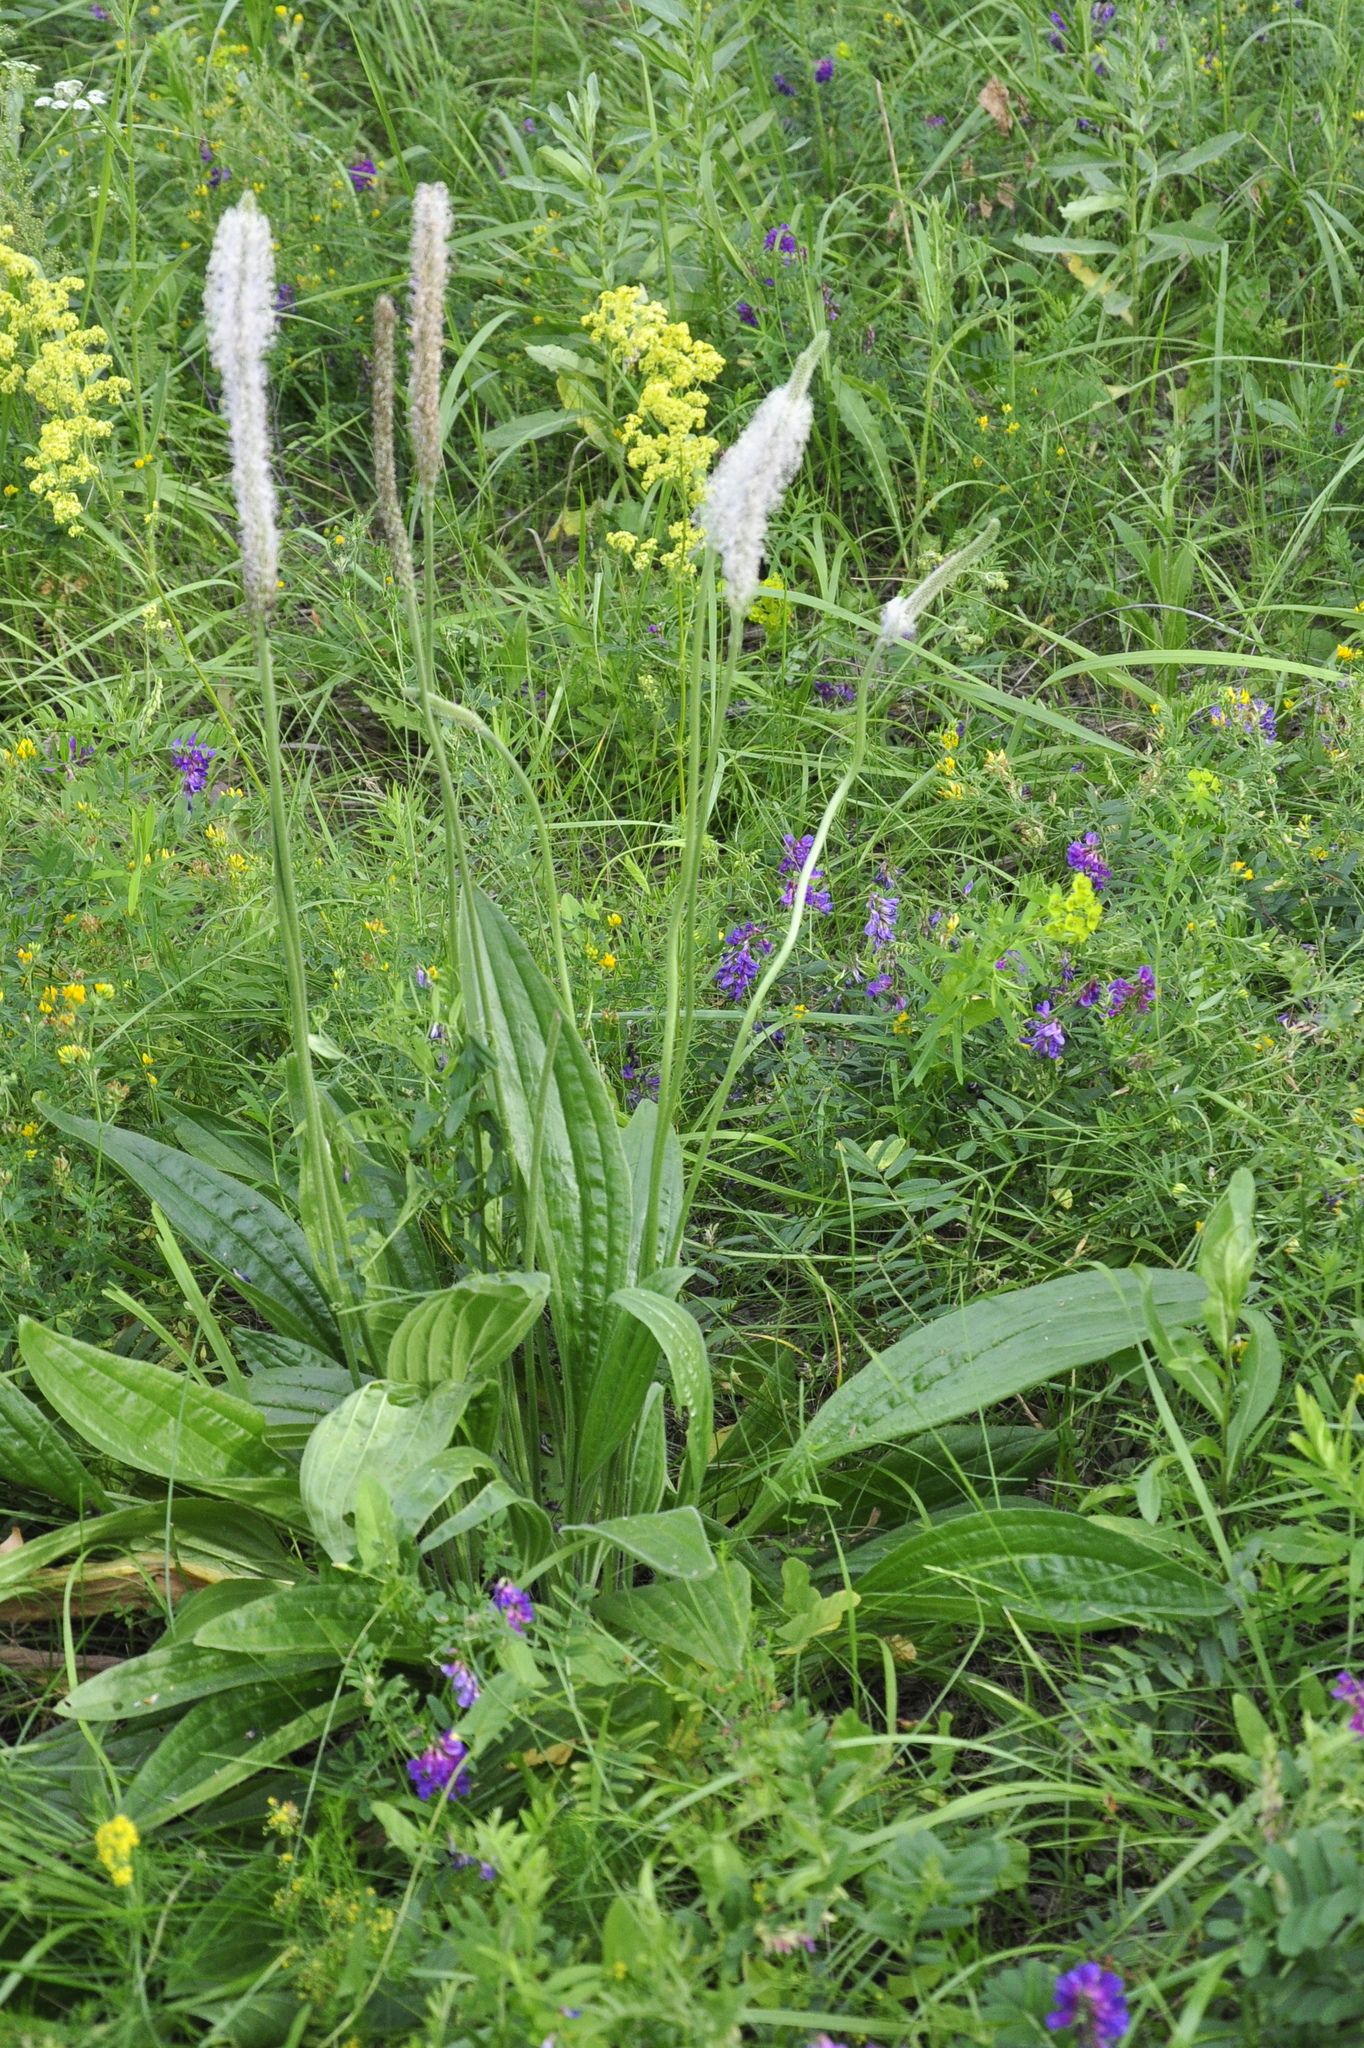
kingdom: Plantae
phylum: Tracheophyta
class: Magnoliopsida
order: Lamiales
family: Plantaginaceae
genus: Plantago
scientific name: Plantago urvillei
